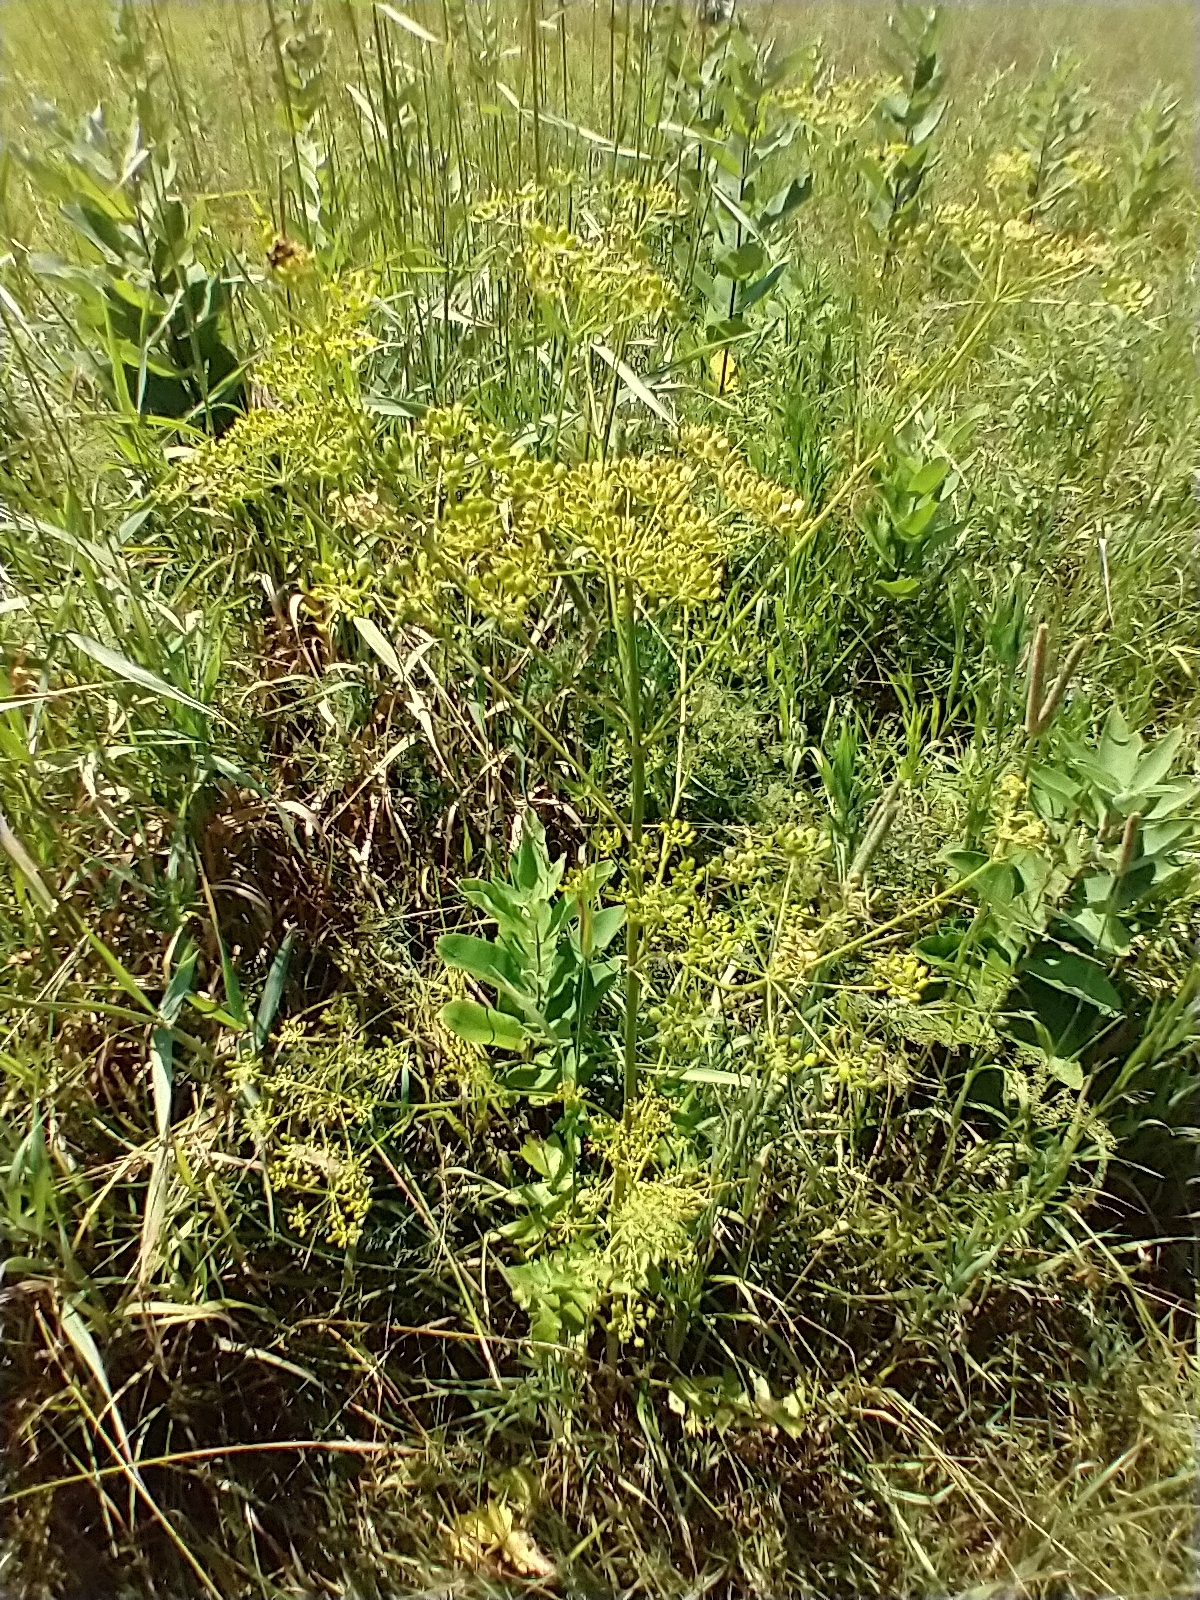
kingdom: Plantae
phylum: Tracheophyta
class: Magnoliopsida
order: Apiales
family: Apiaceae
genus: Pastinaca
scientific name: Pastinaca sativa
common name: Wild parsnip
